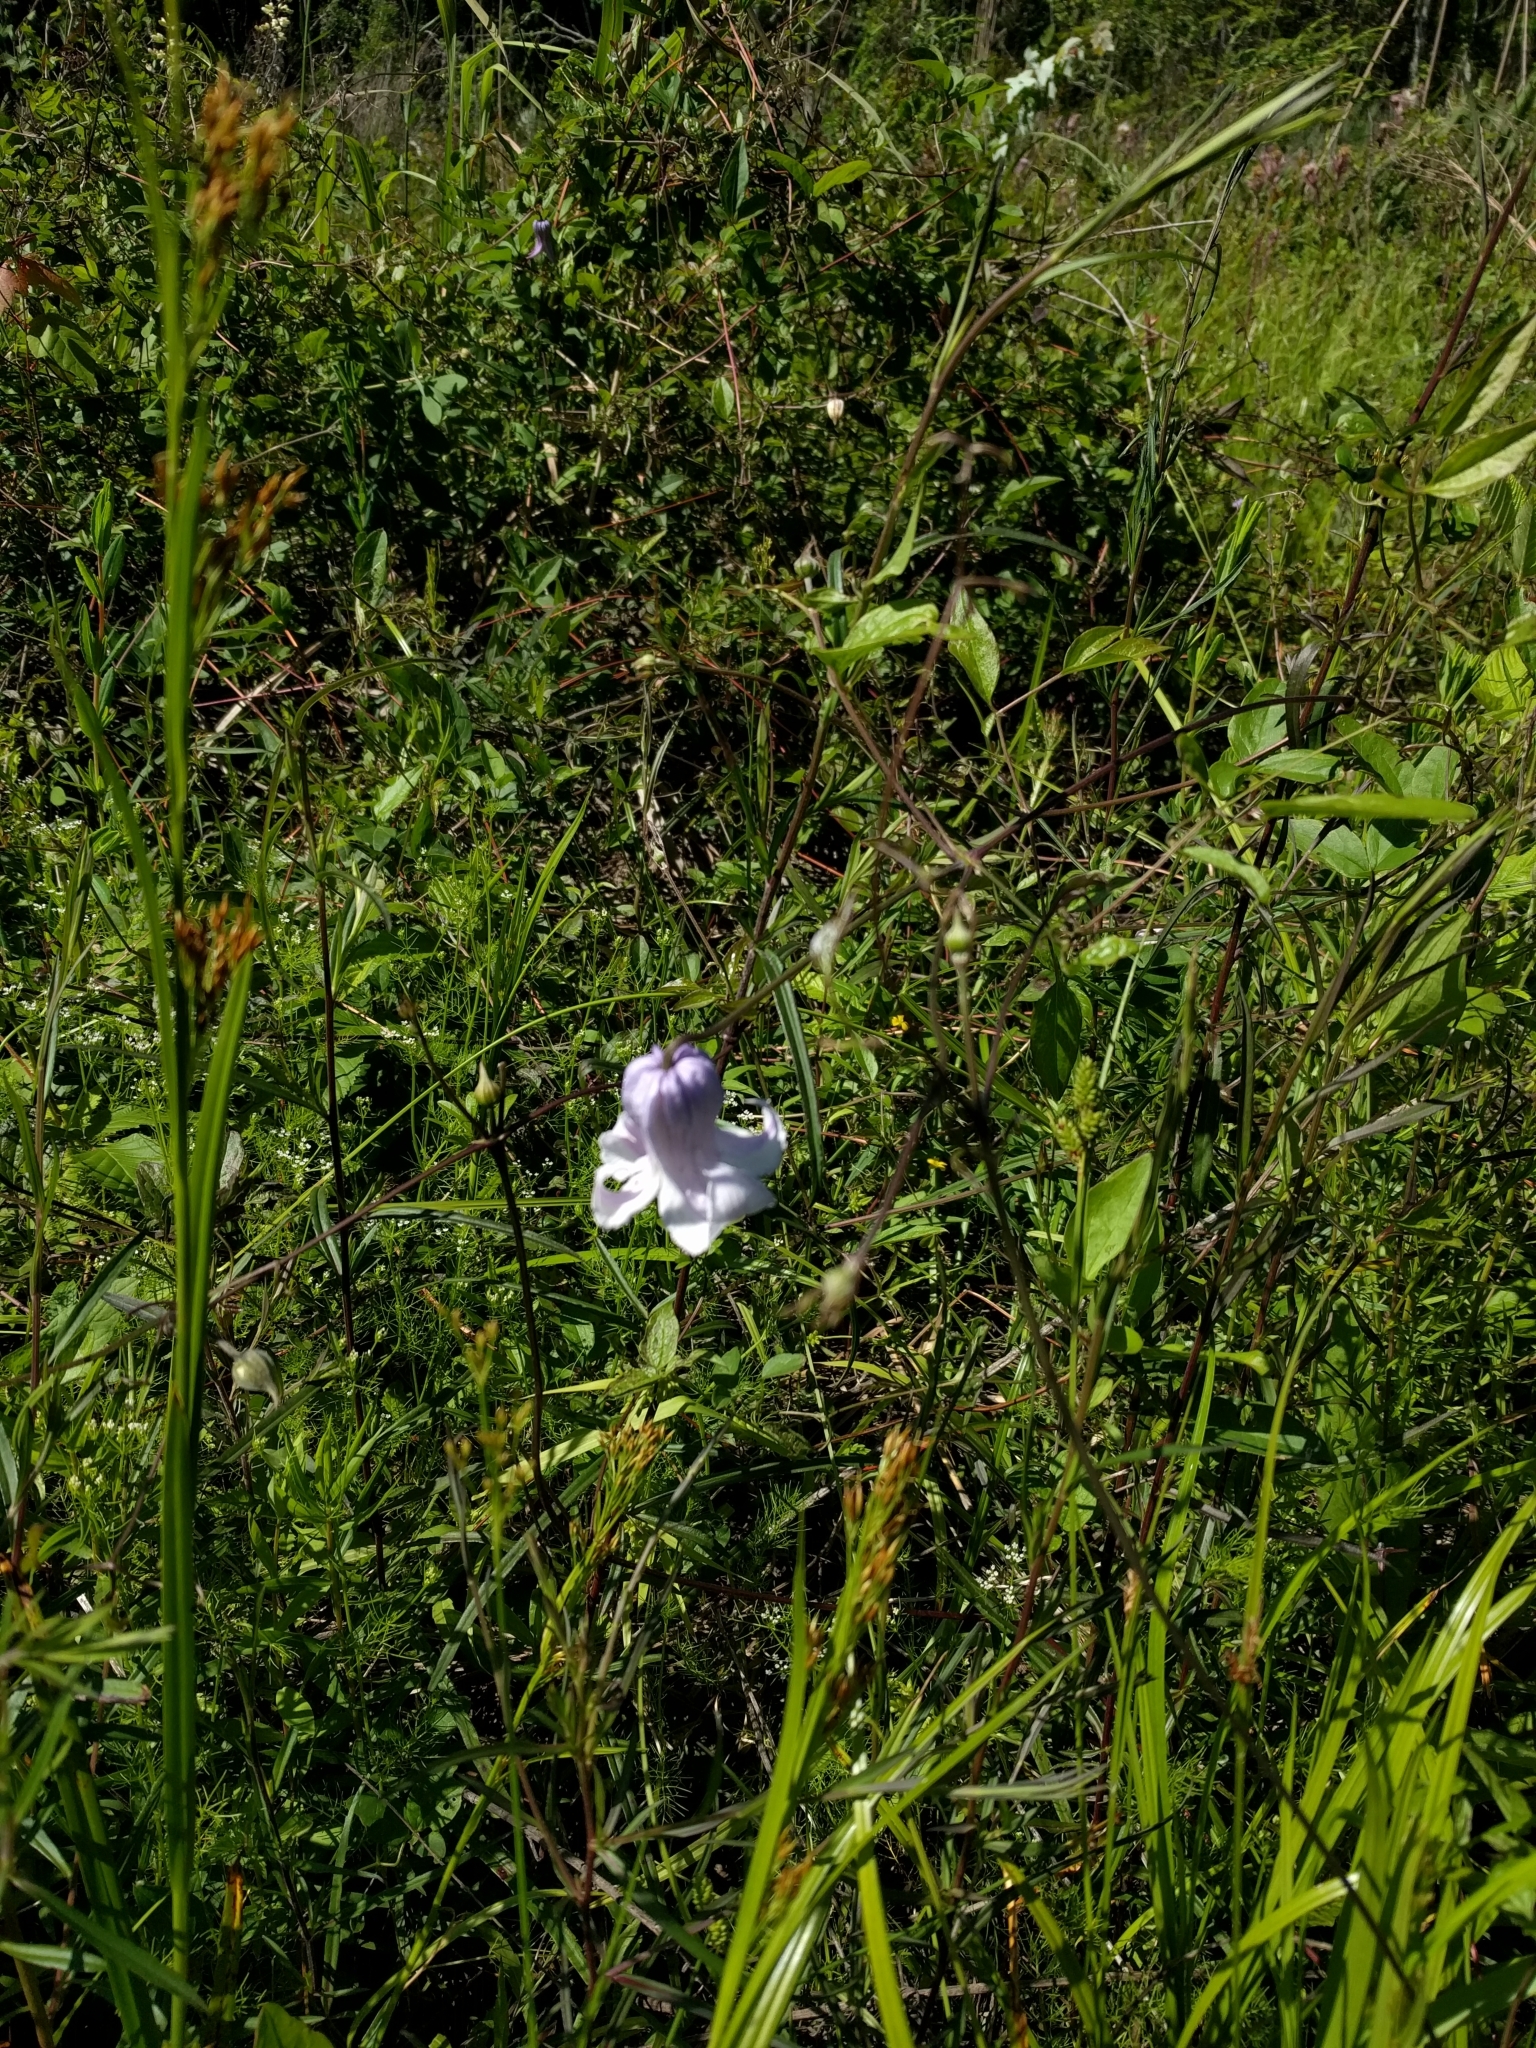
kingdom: Plantae
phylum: Tracheophyta
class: Magnoliopsida
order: Ranunculales
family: Ranunculaceae
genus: Clematis
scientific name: Clematis crispa
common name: Curly clematis
